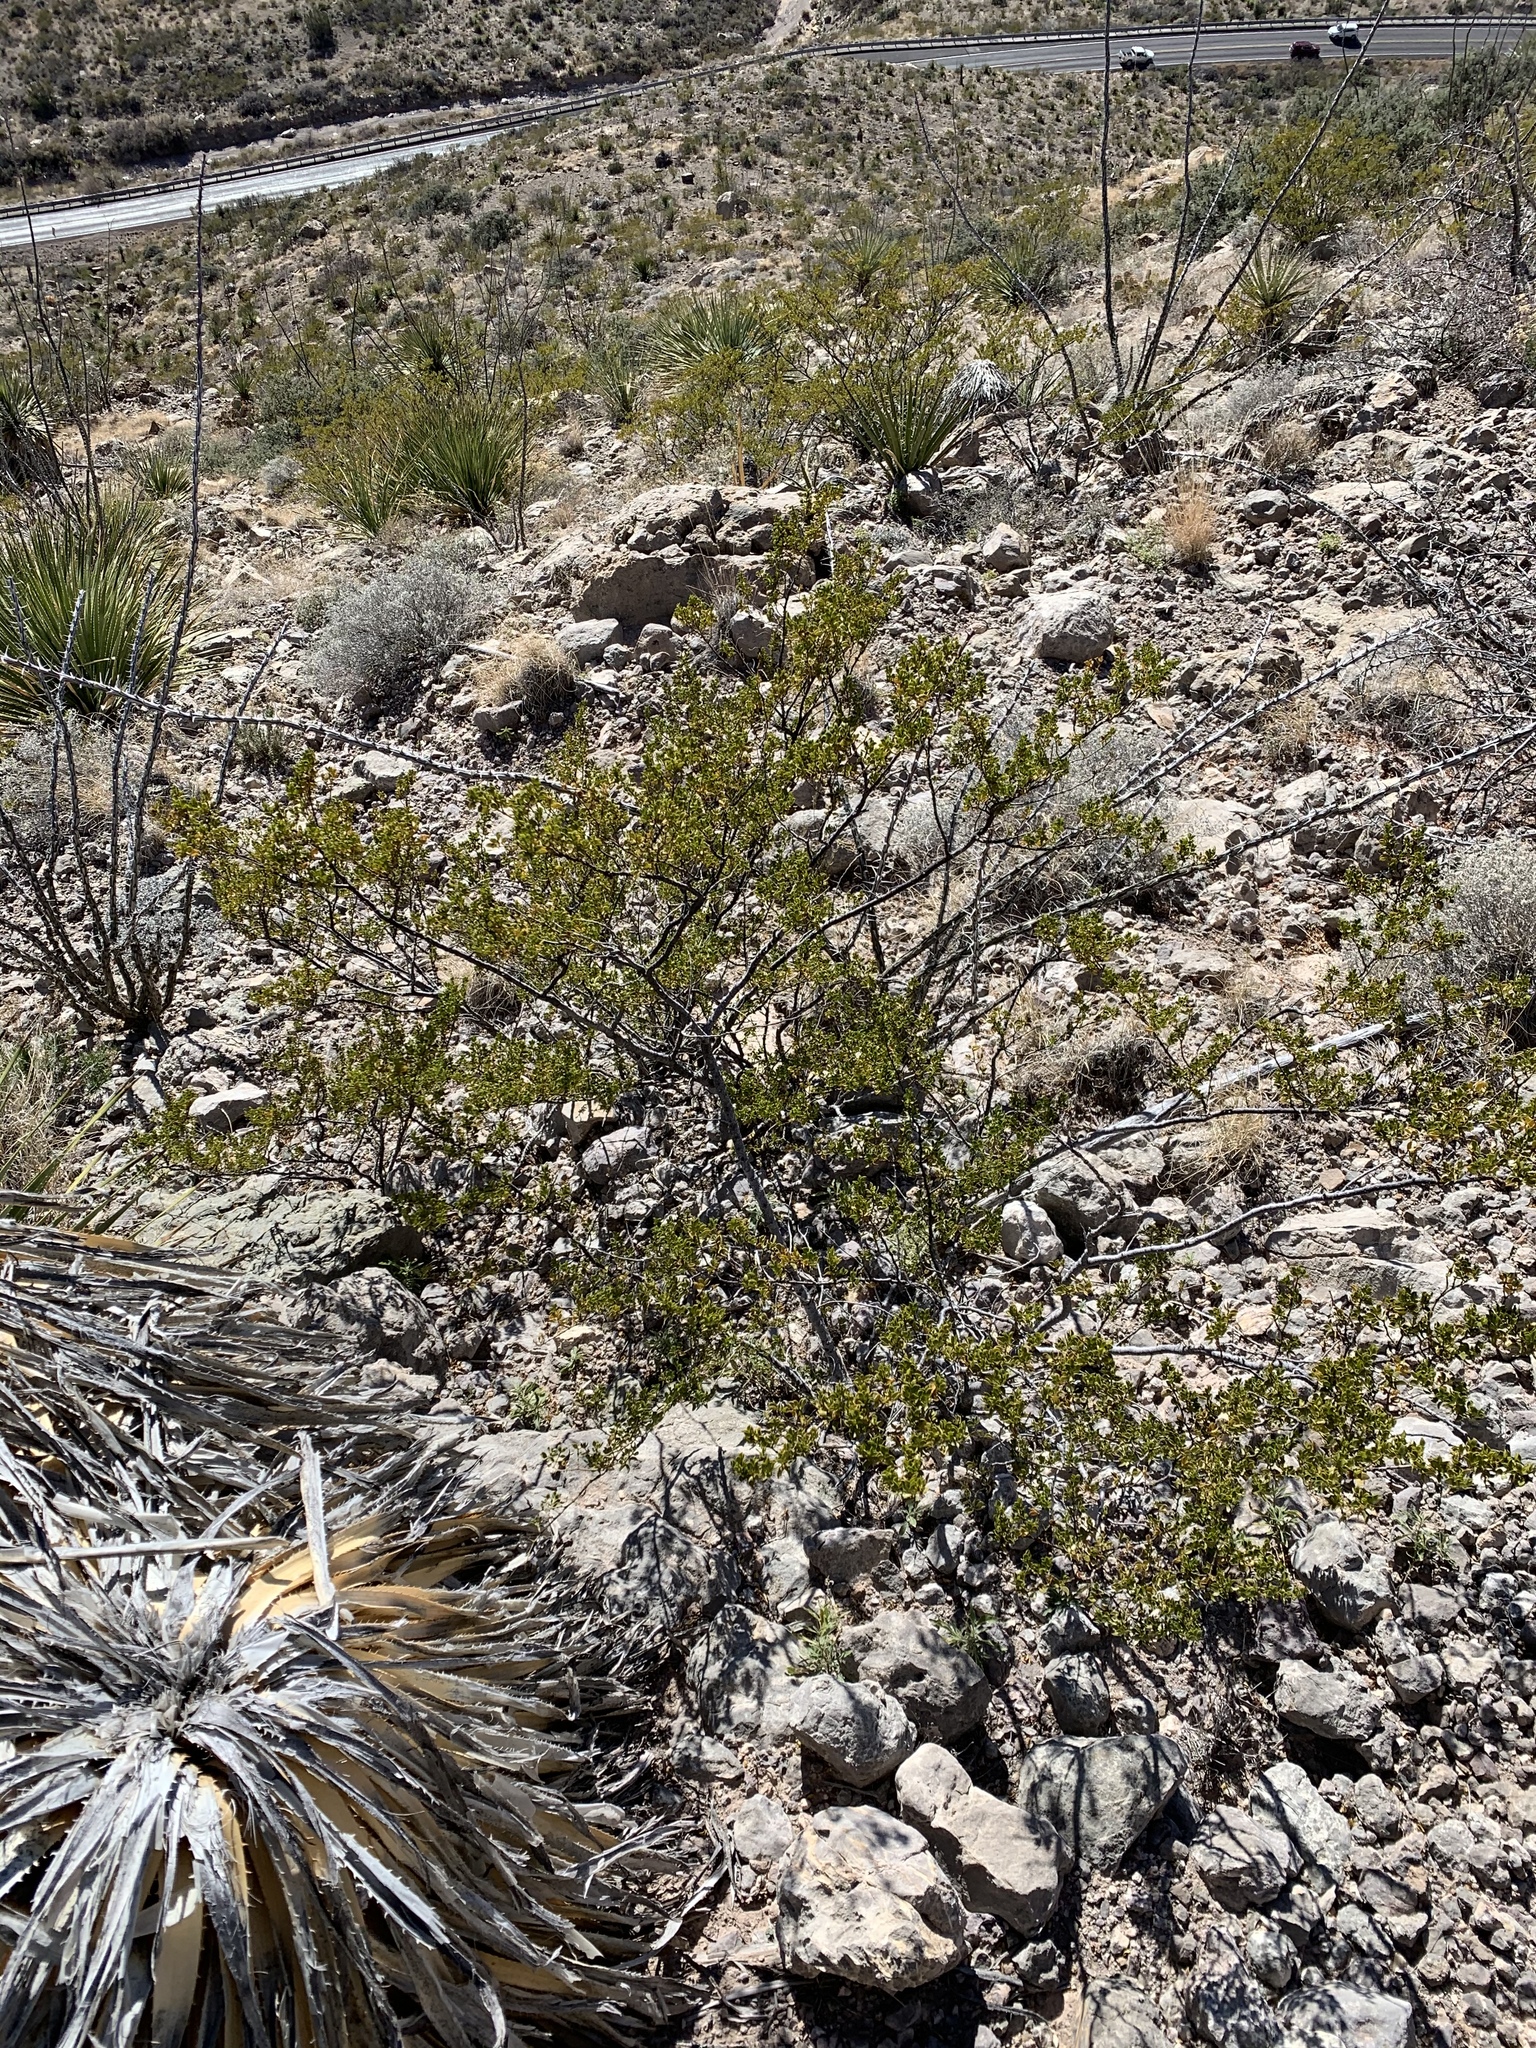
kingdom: Plantae
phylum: Tracheophyta
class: Magnoliopsida
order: Zygophyllales
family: Zygophyllaceae
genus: Larrea
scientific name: Larrea tridentata
